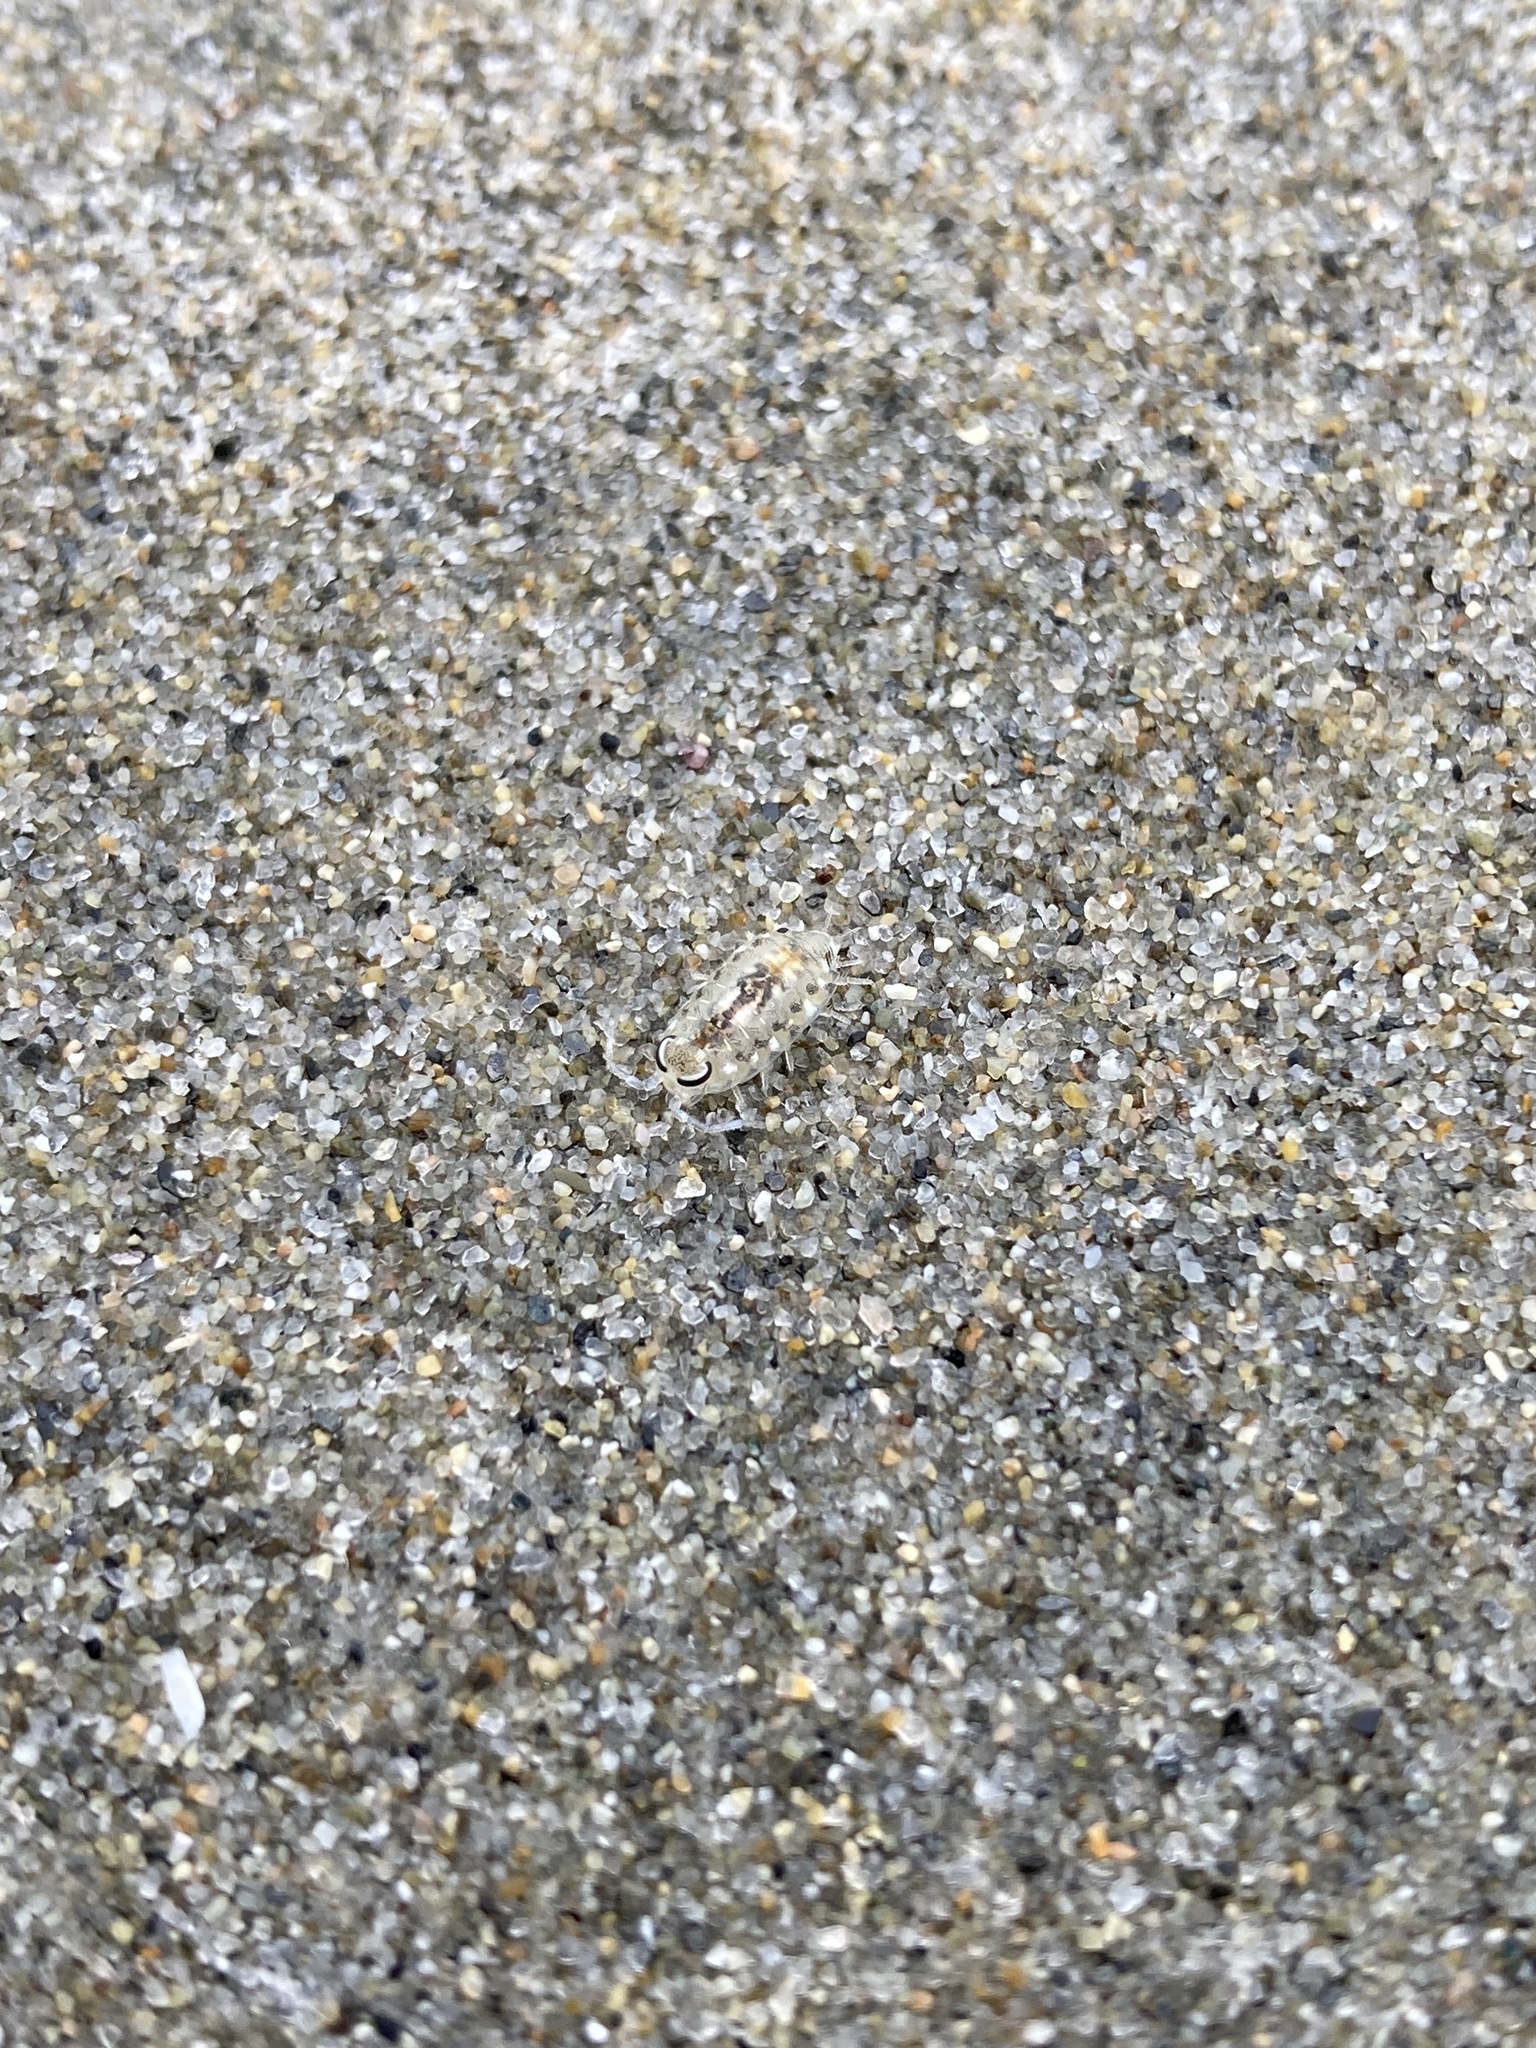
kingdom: Animalia
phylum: Arthropoda
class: Malacostraca
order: Isopoda
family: Scyphacidae
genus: Scyphax
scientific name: Scyphax ornatus
